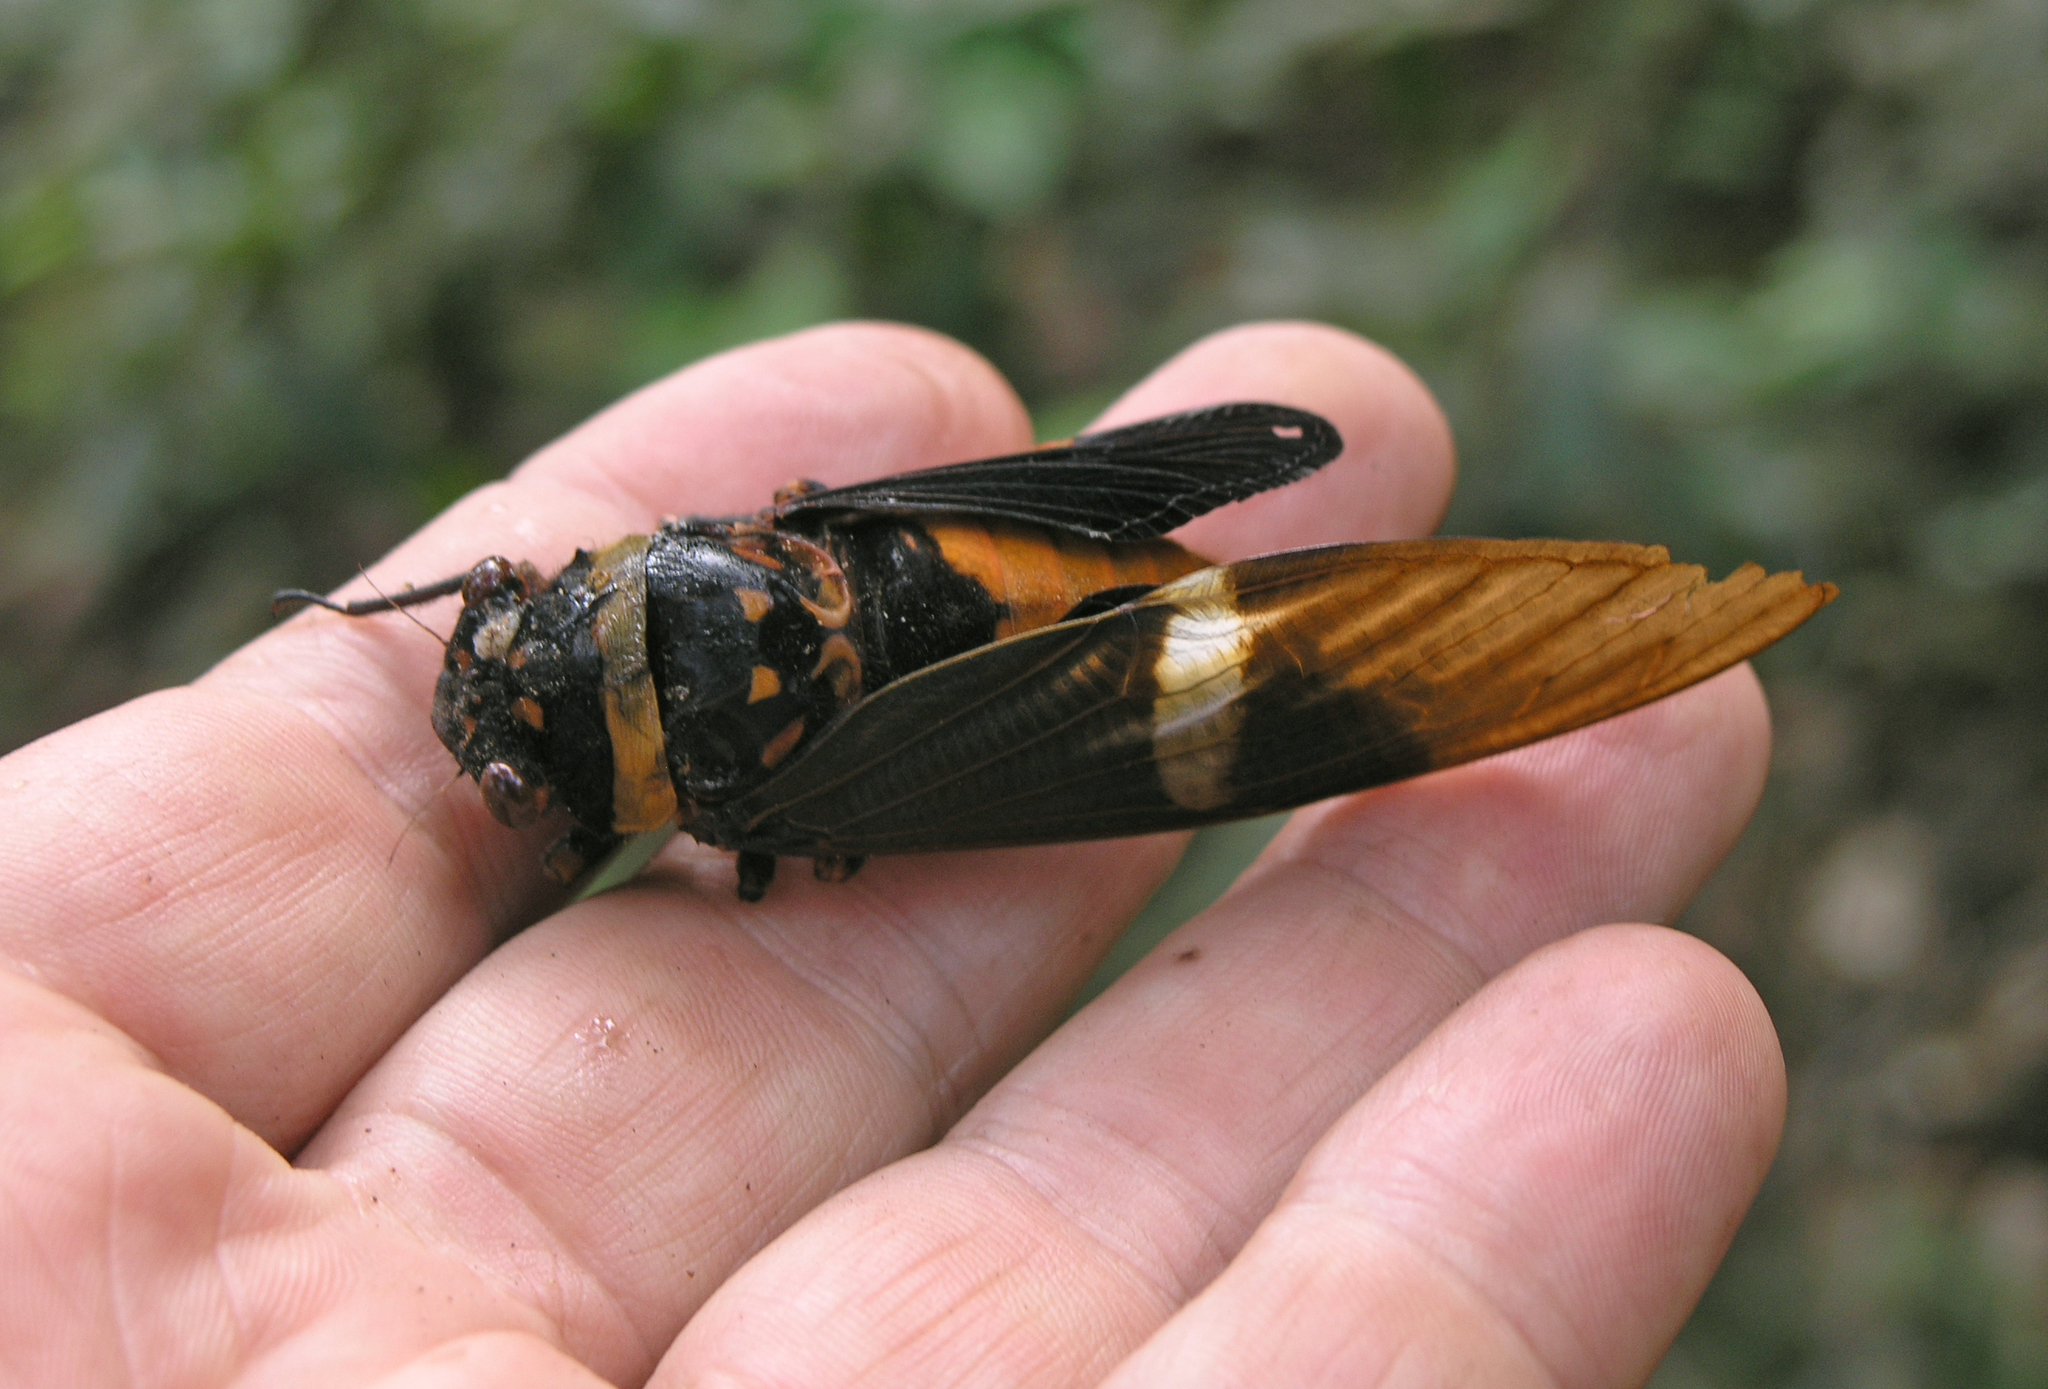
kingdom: Animalia
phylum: Arthropoda
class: Insecta
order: Hemiptera
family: Cicadidae
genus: Tosena
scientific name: Tosena depicta
